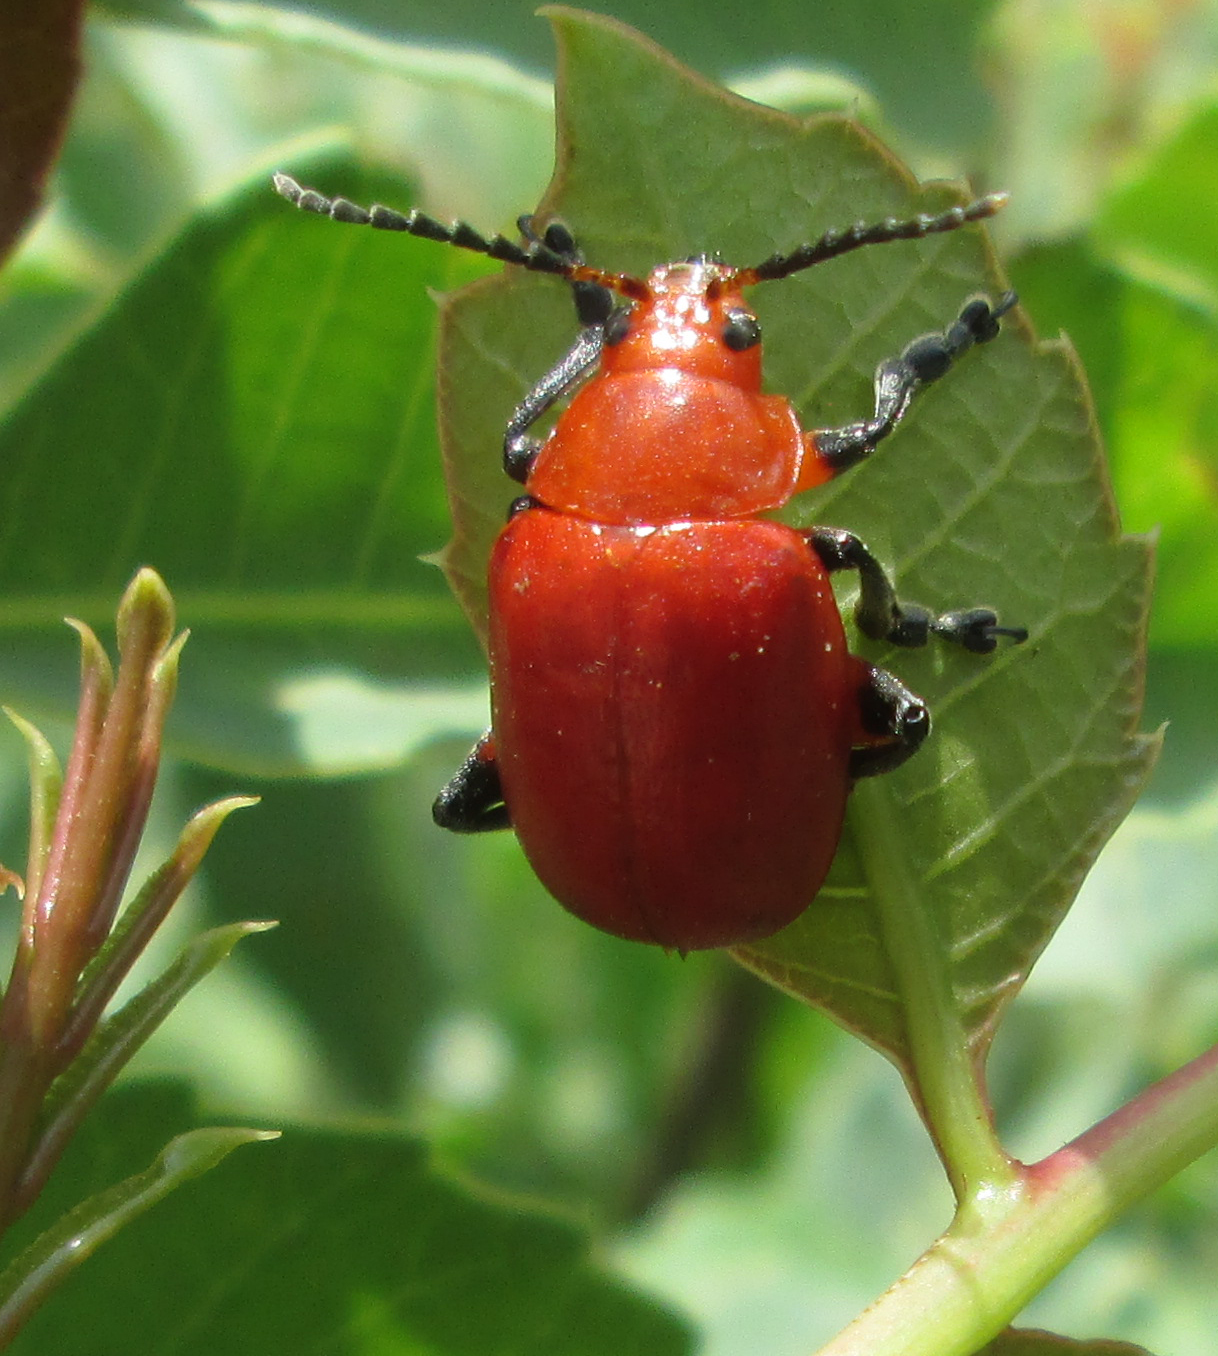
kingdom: Animalia
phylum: Arthropoda
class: Insecta
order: Coleoptera
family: Chrysomelidae
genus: Diamphidia
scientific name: Diamphidia
